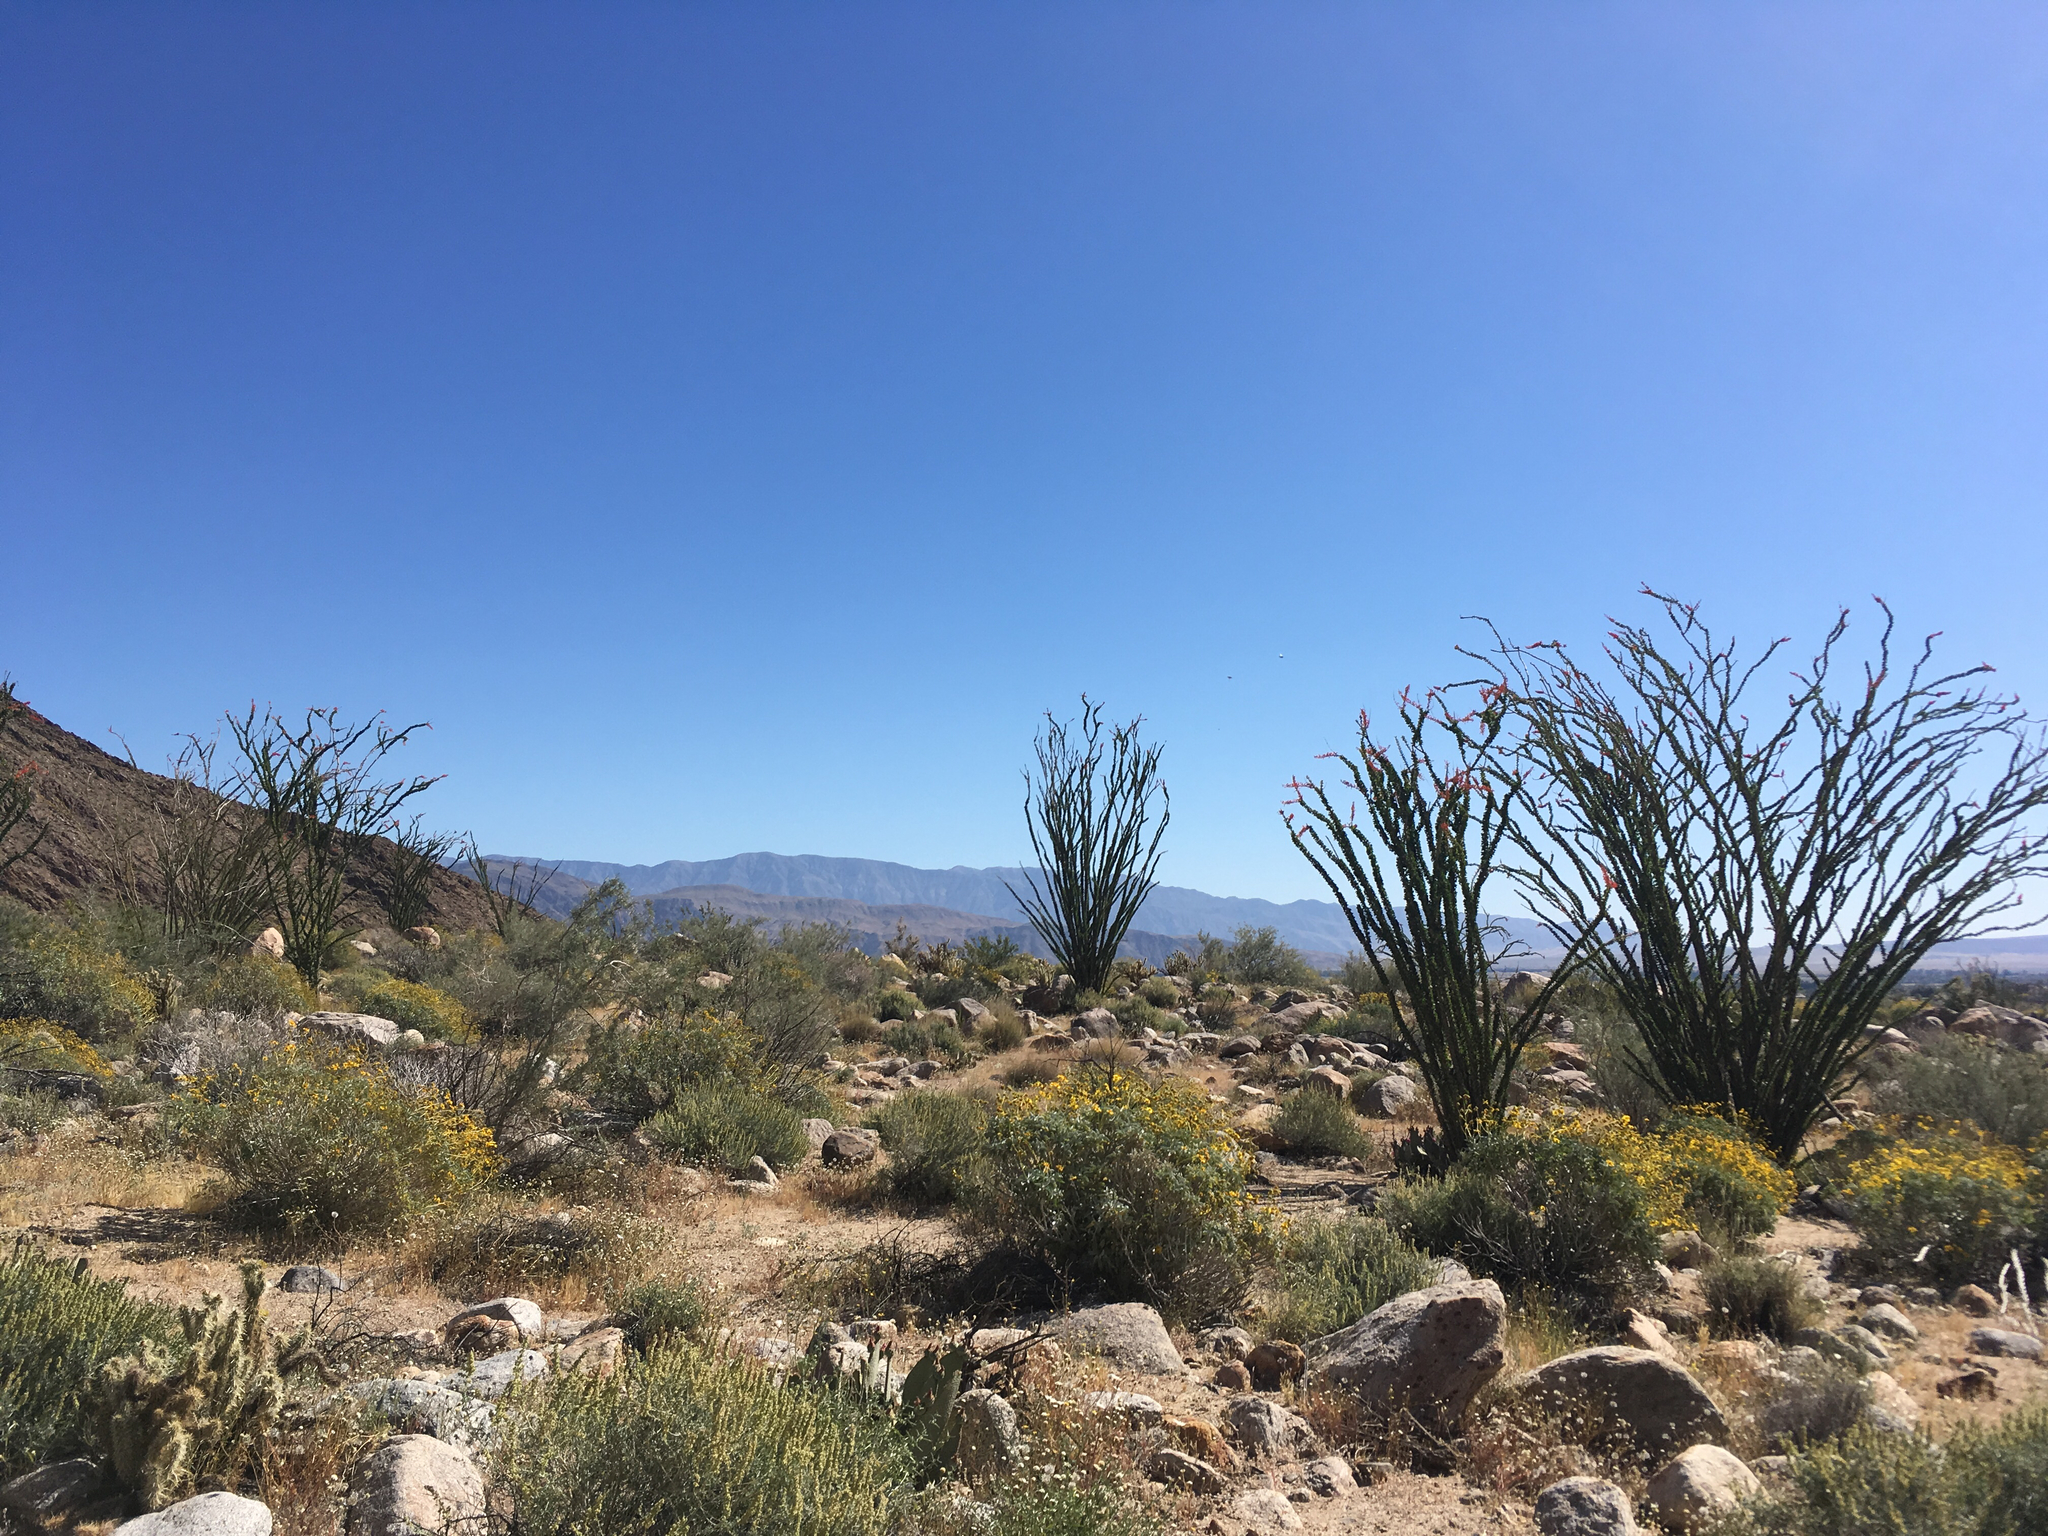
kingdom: Plantae
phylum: Tracheophyta
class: Magnoliopsida
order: Ericales
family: Fouquieriaceae
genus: Fouquieria
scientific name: Fouquieria splendens
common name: Vine-cactus
